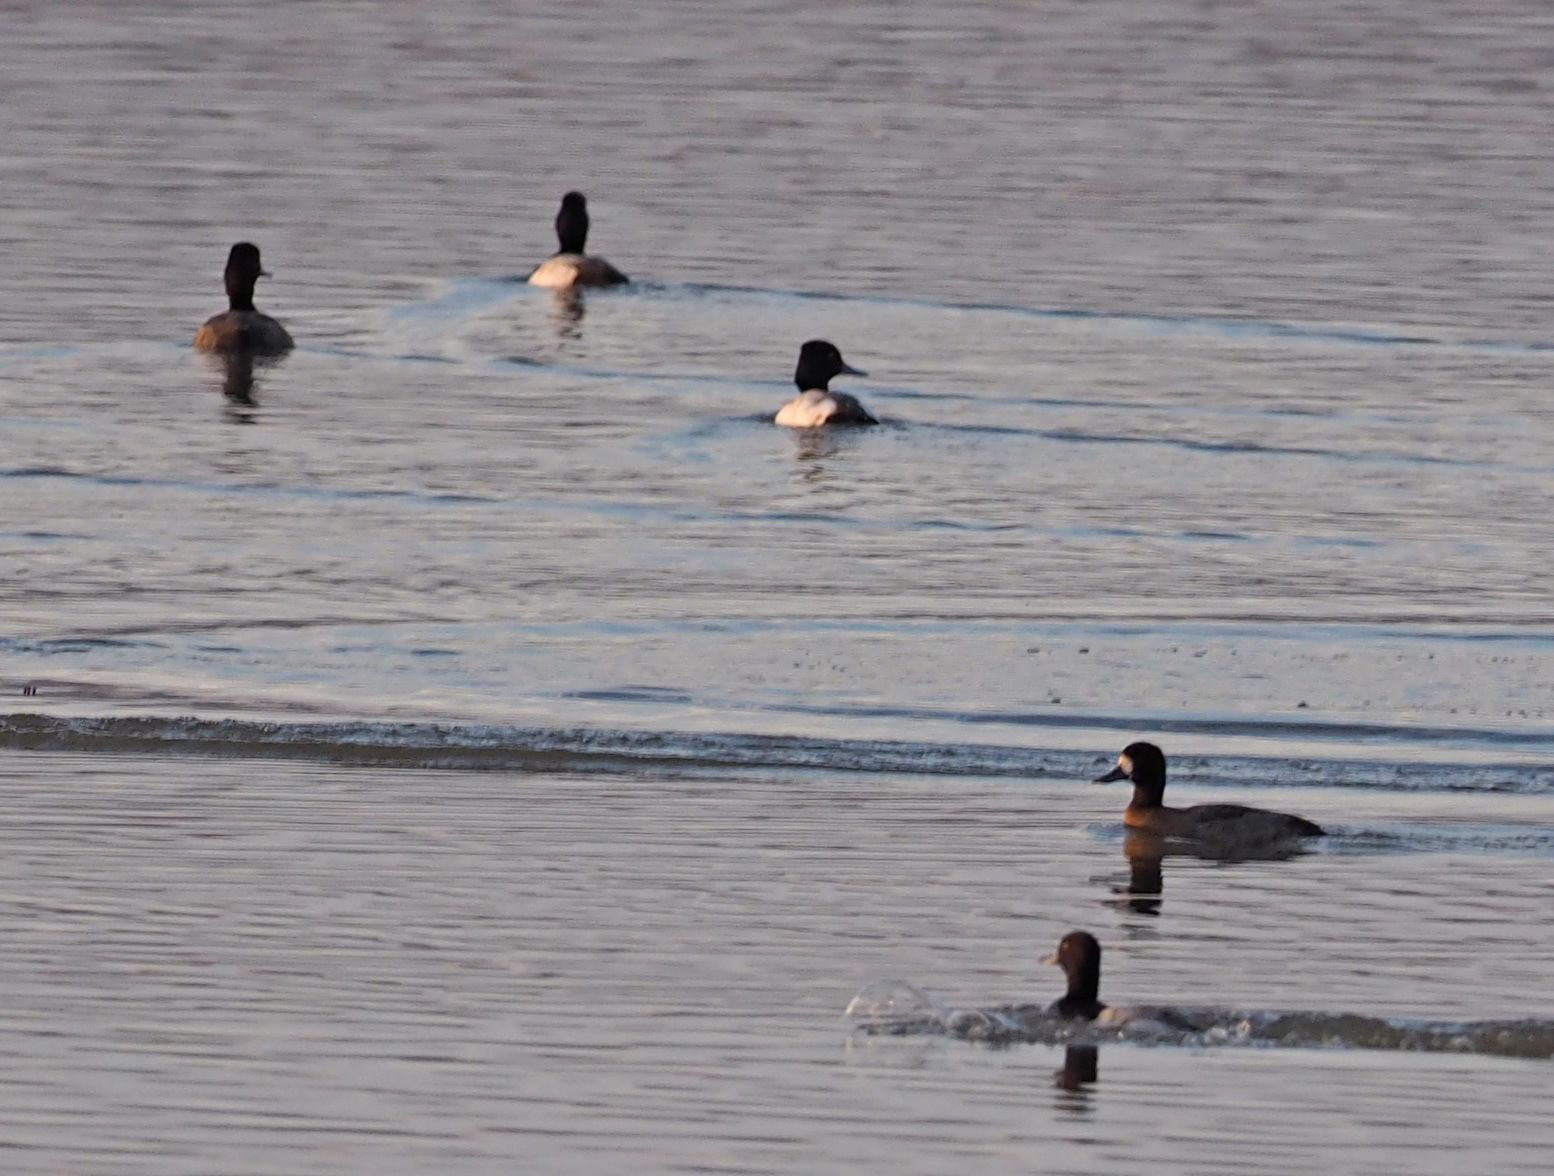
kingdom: Animalia
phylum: Chordata
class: Aves
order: Anseriformes
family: Anatidae
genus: Aythya
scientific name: Aythya affinis
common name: Lesser scaup
